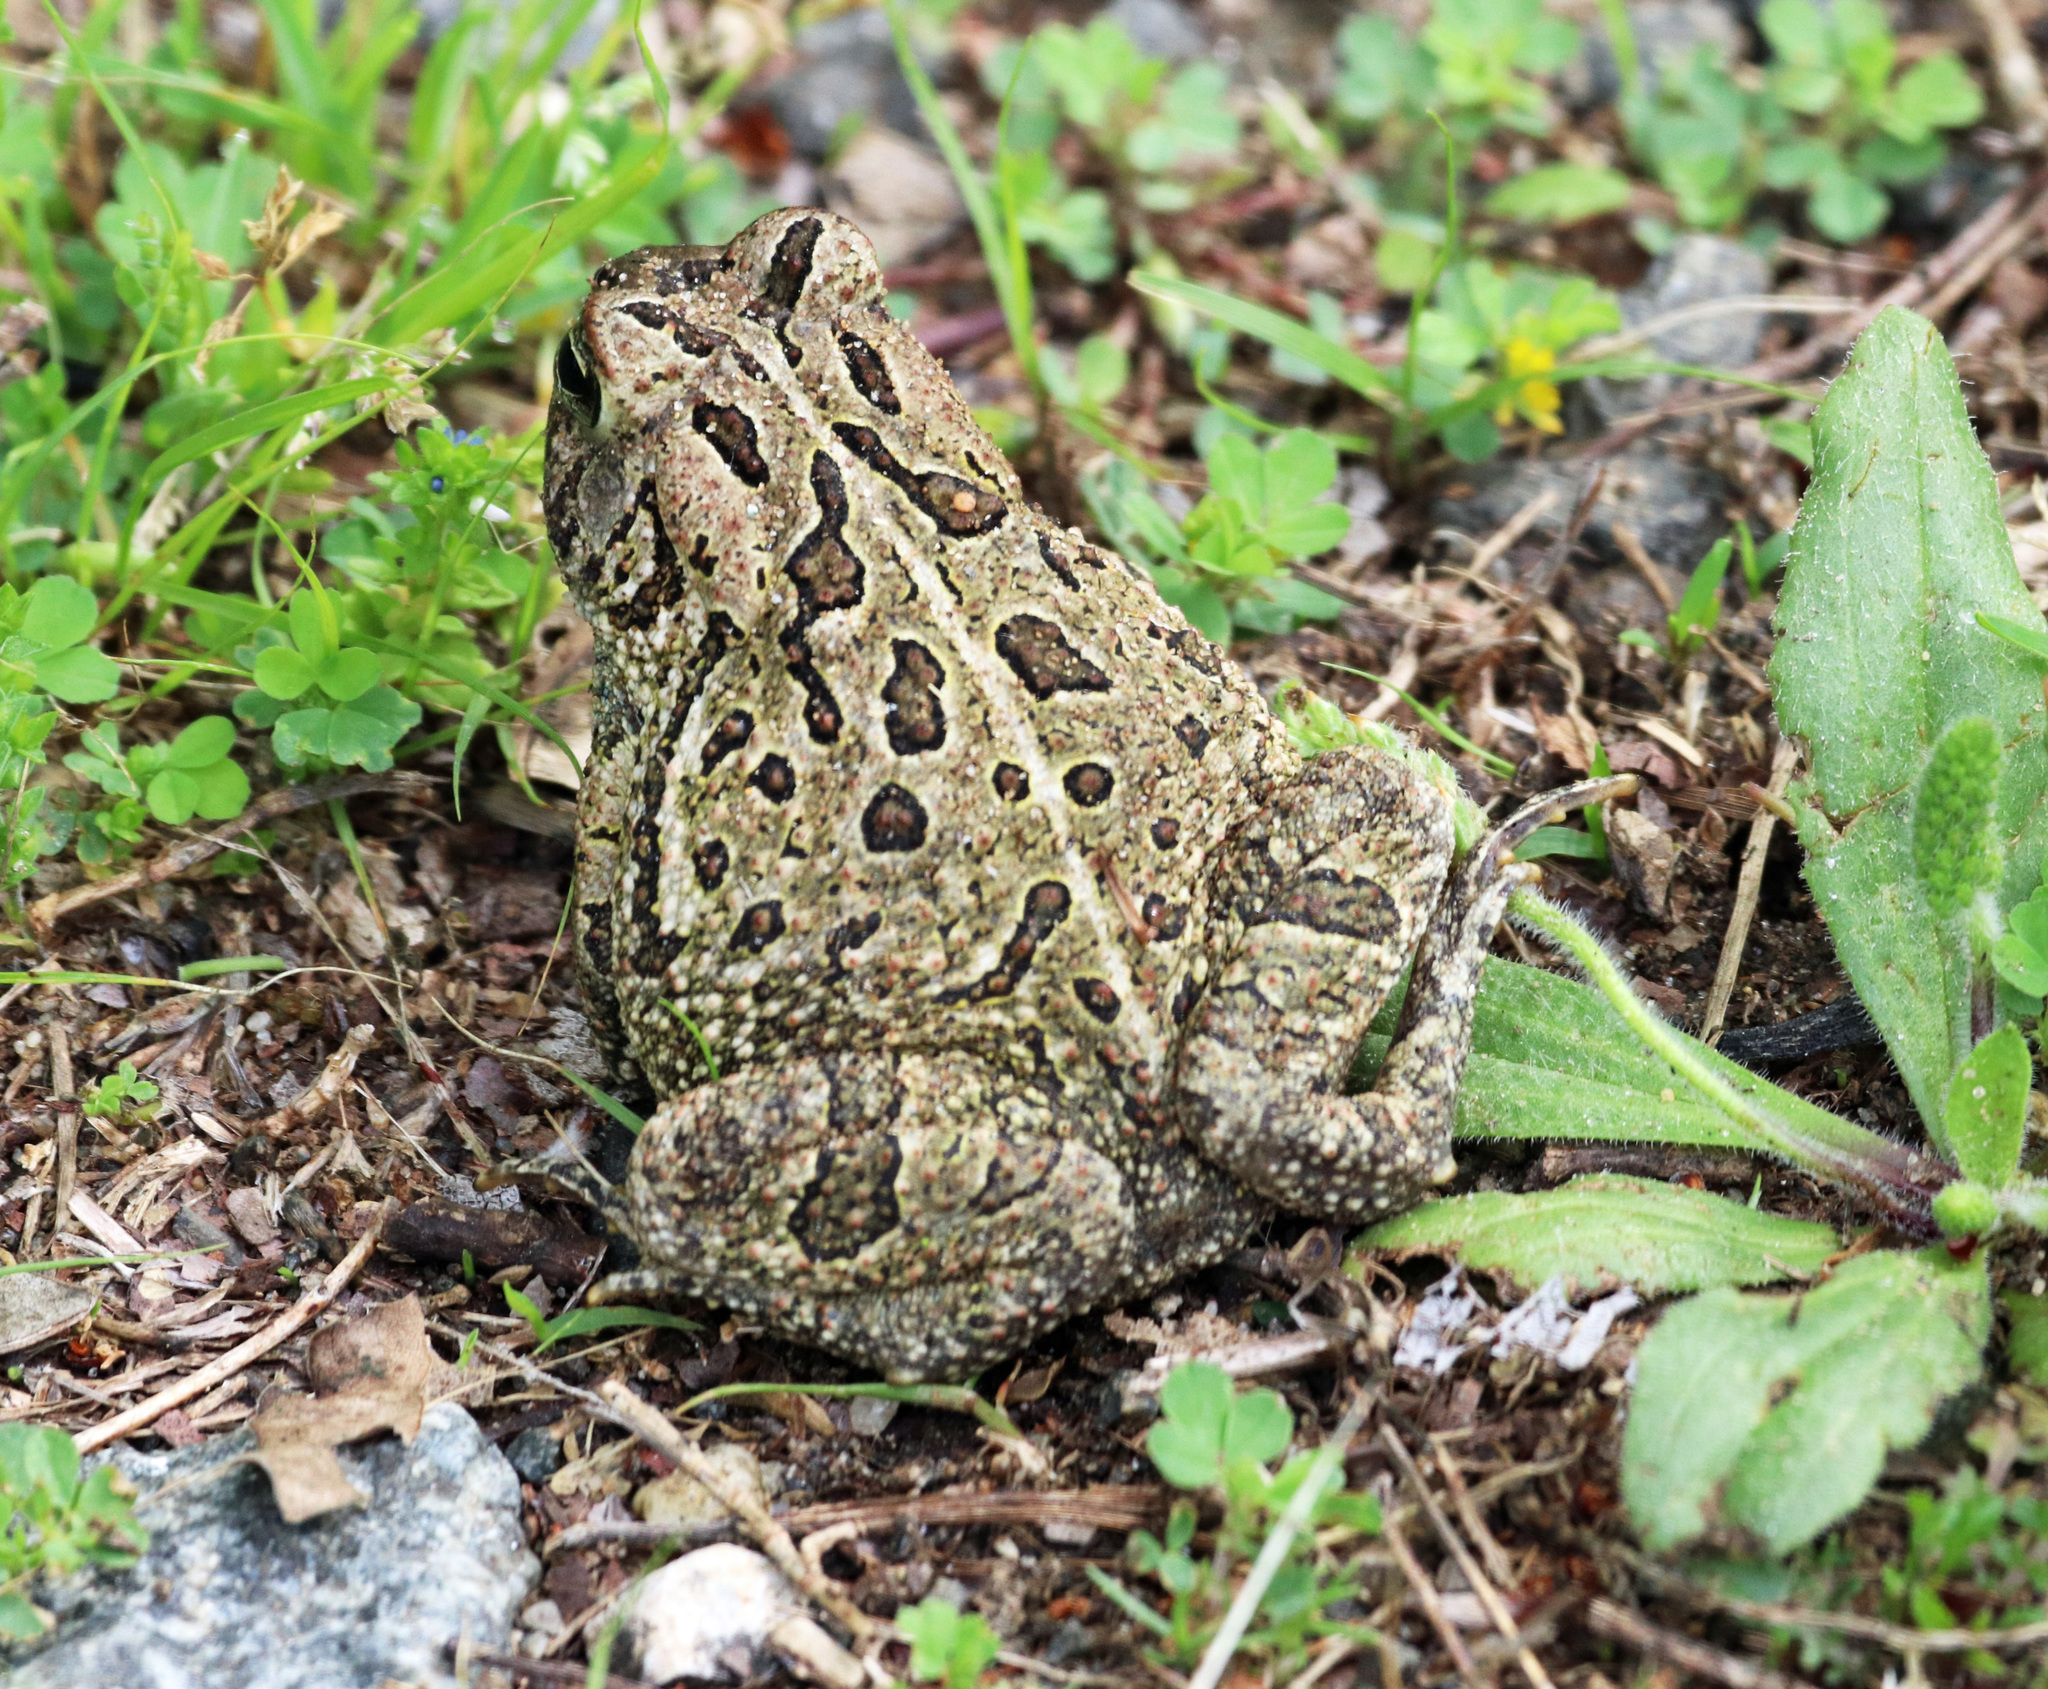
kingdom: Animalia
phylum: Chordata
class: Amphibia
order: Anura
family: Bufonidae
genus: Anaxyrus
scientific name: Anaxyrus fowleri
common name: Fowler's toad
